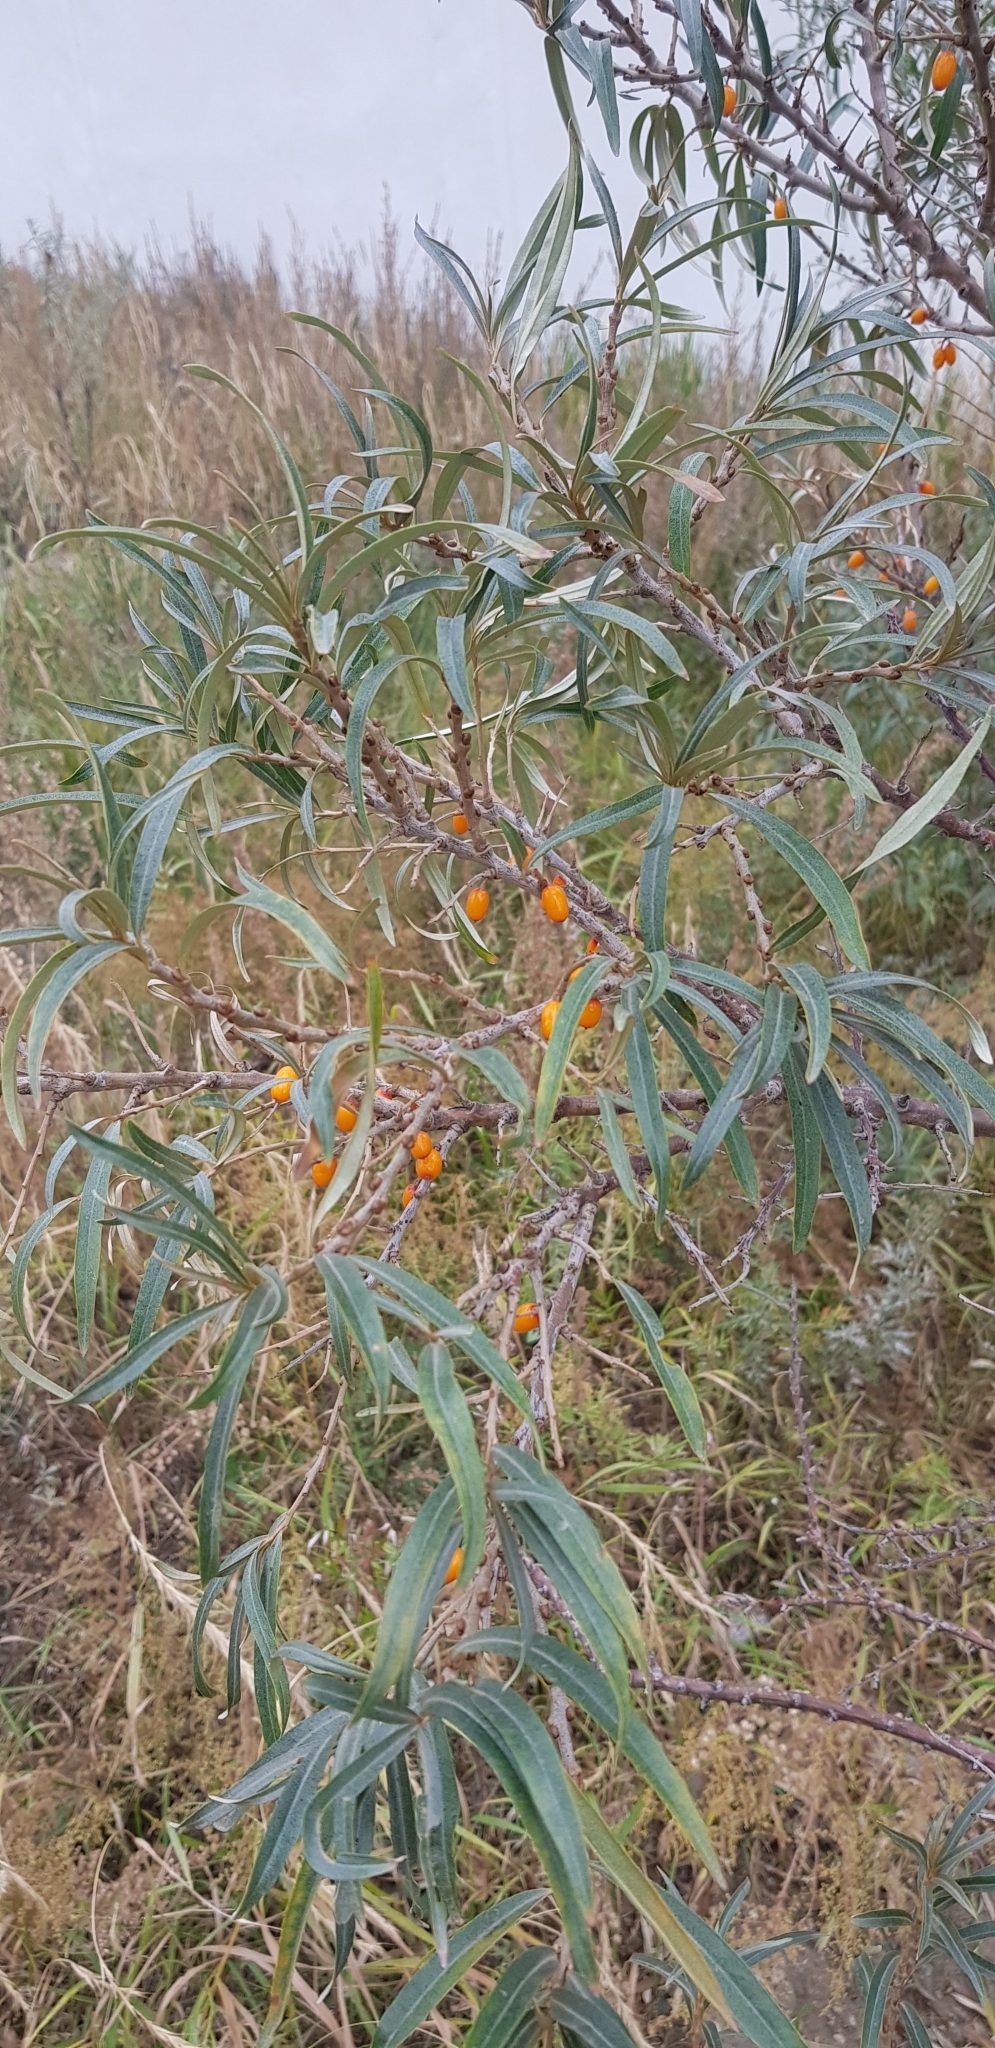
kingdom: Plantae
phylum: Tracheophyta
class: Magnoliopsida
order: Rosales
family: Elaeagnaceae
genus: Hippophae
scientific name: Hippophae rhamnoides
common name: Sea-buckthorn
